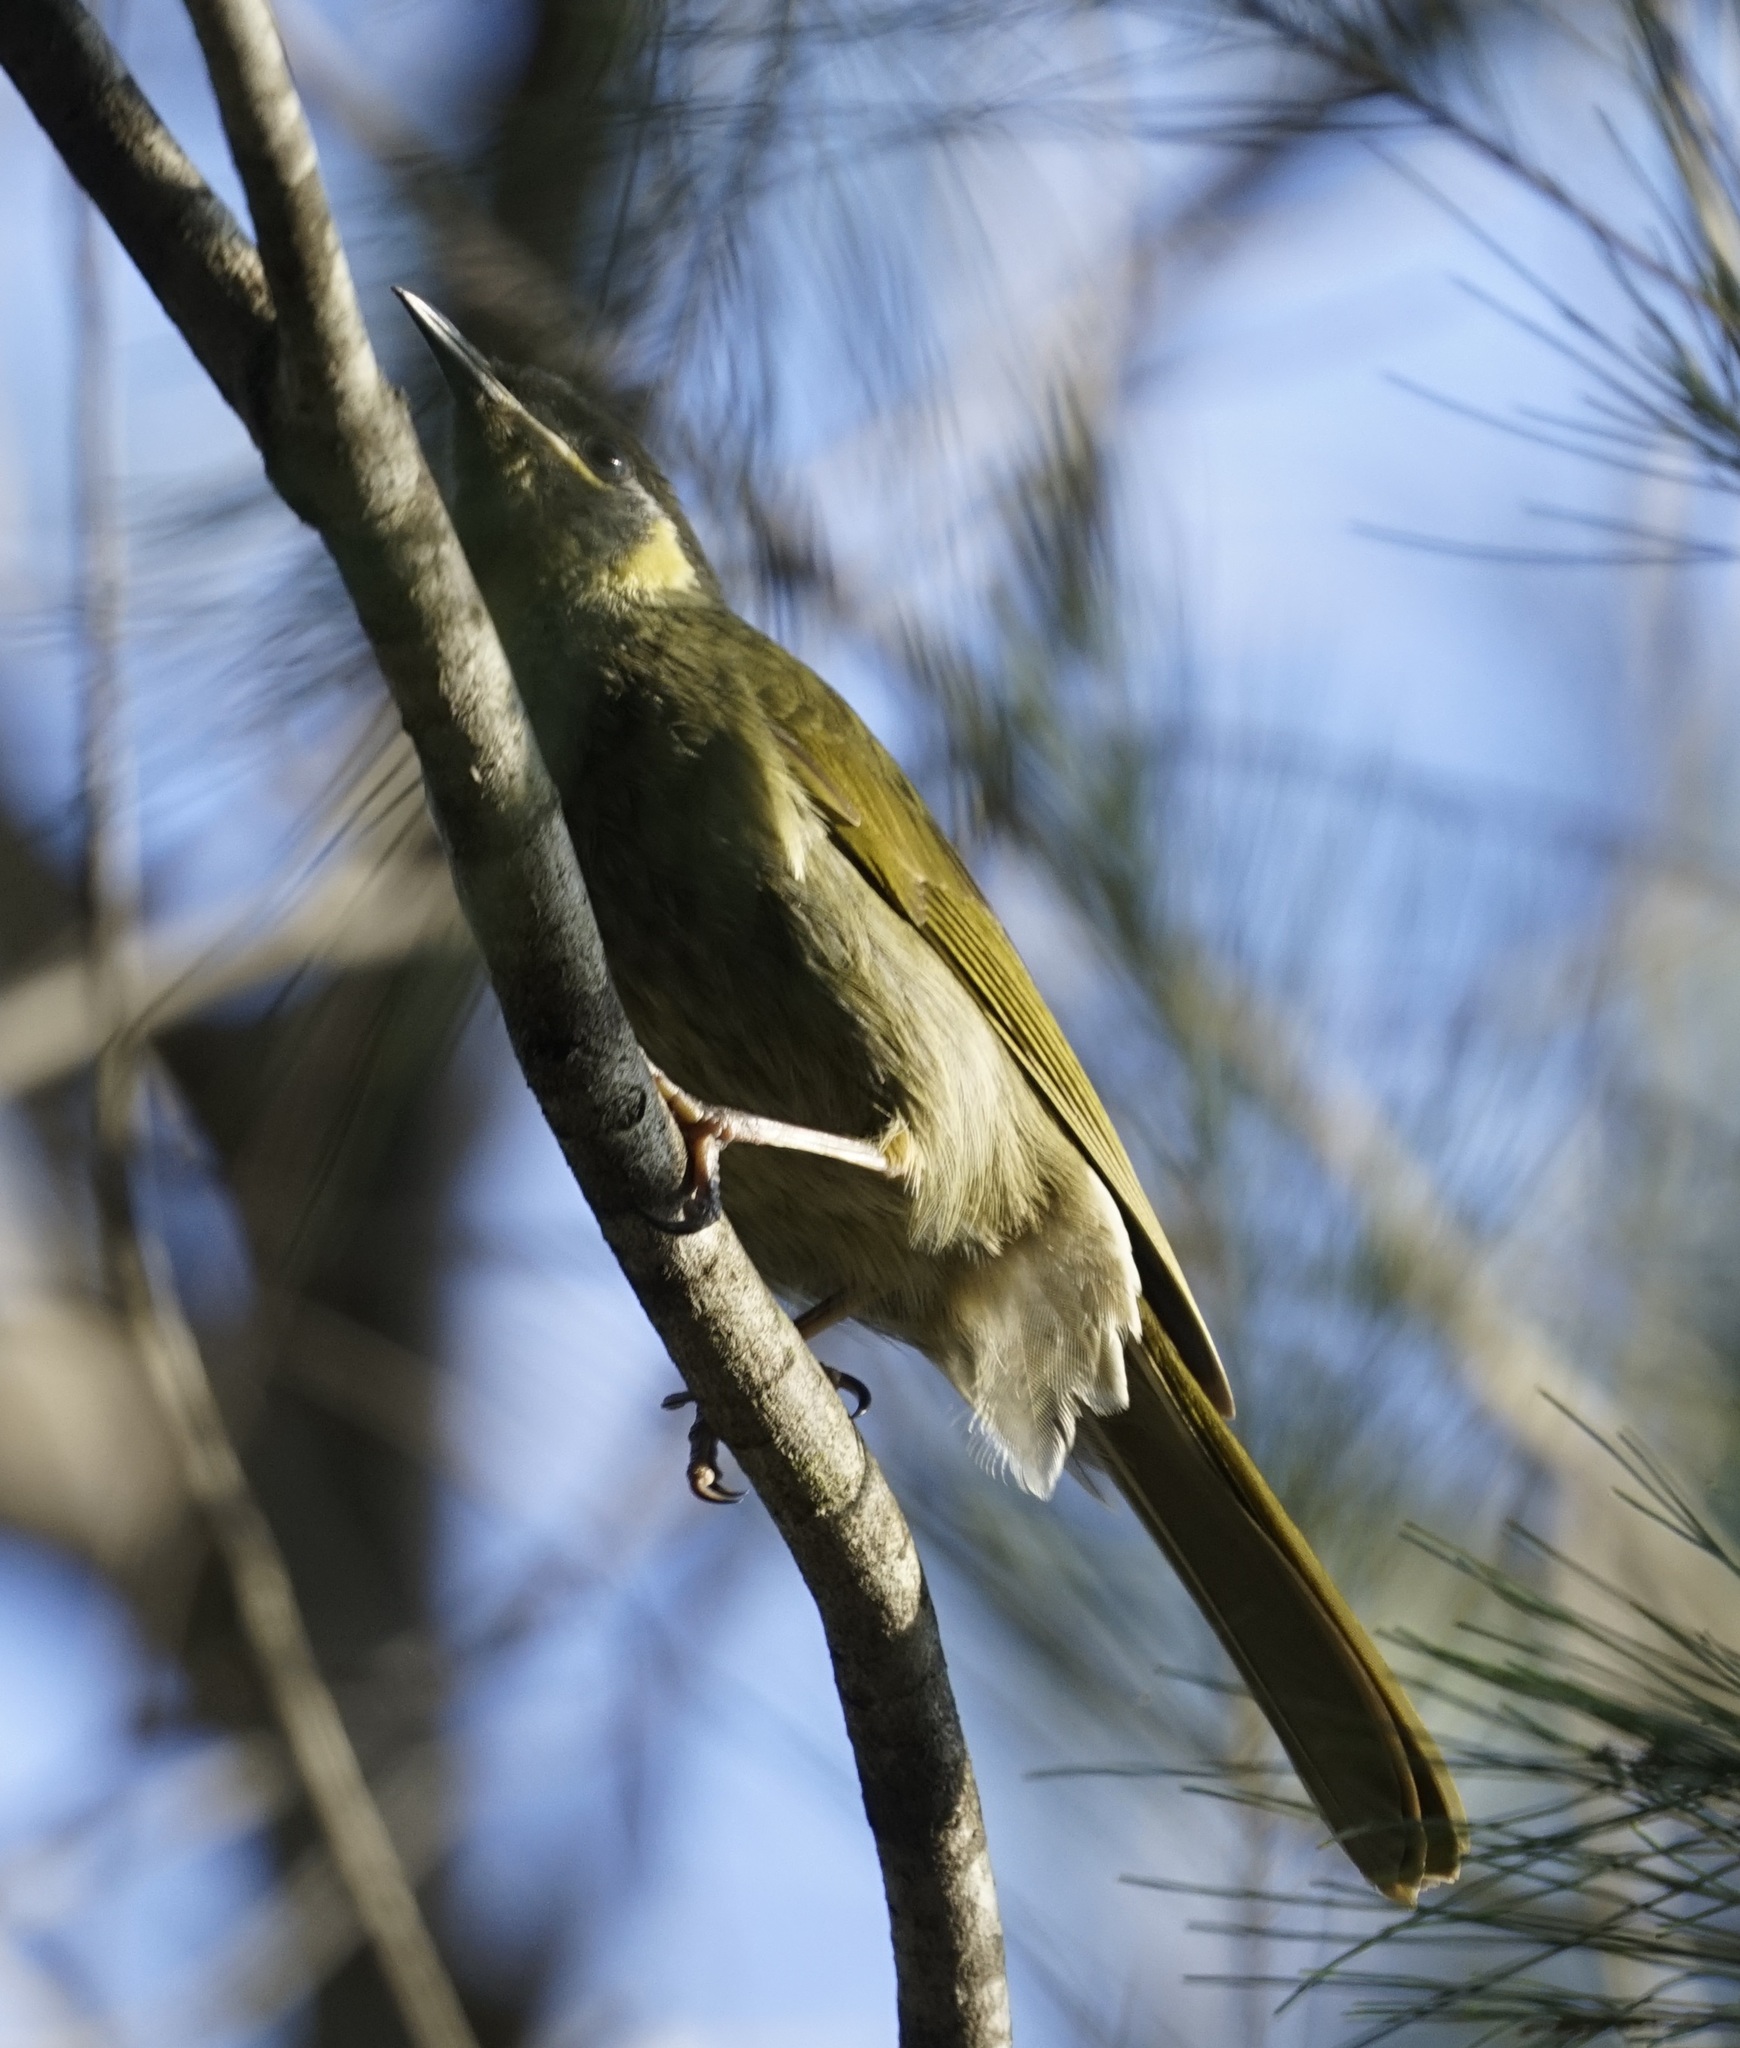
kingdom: Animalia
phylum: Chordata
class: Aves
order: Passeriformes
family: Meliphagidae
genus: Meliphaga
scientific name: Meliphaga lewinii
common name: Lewin's honeyeater
